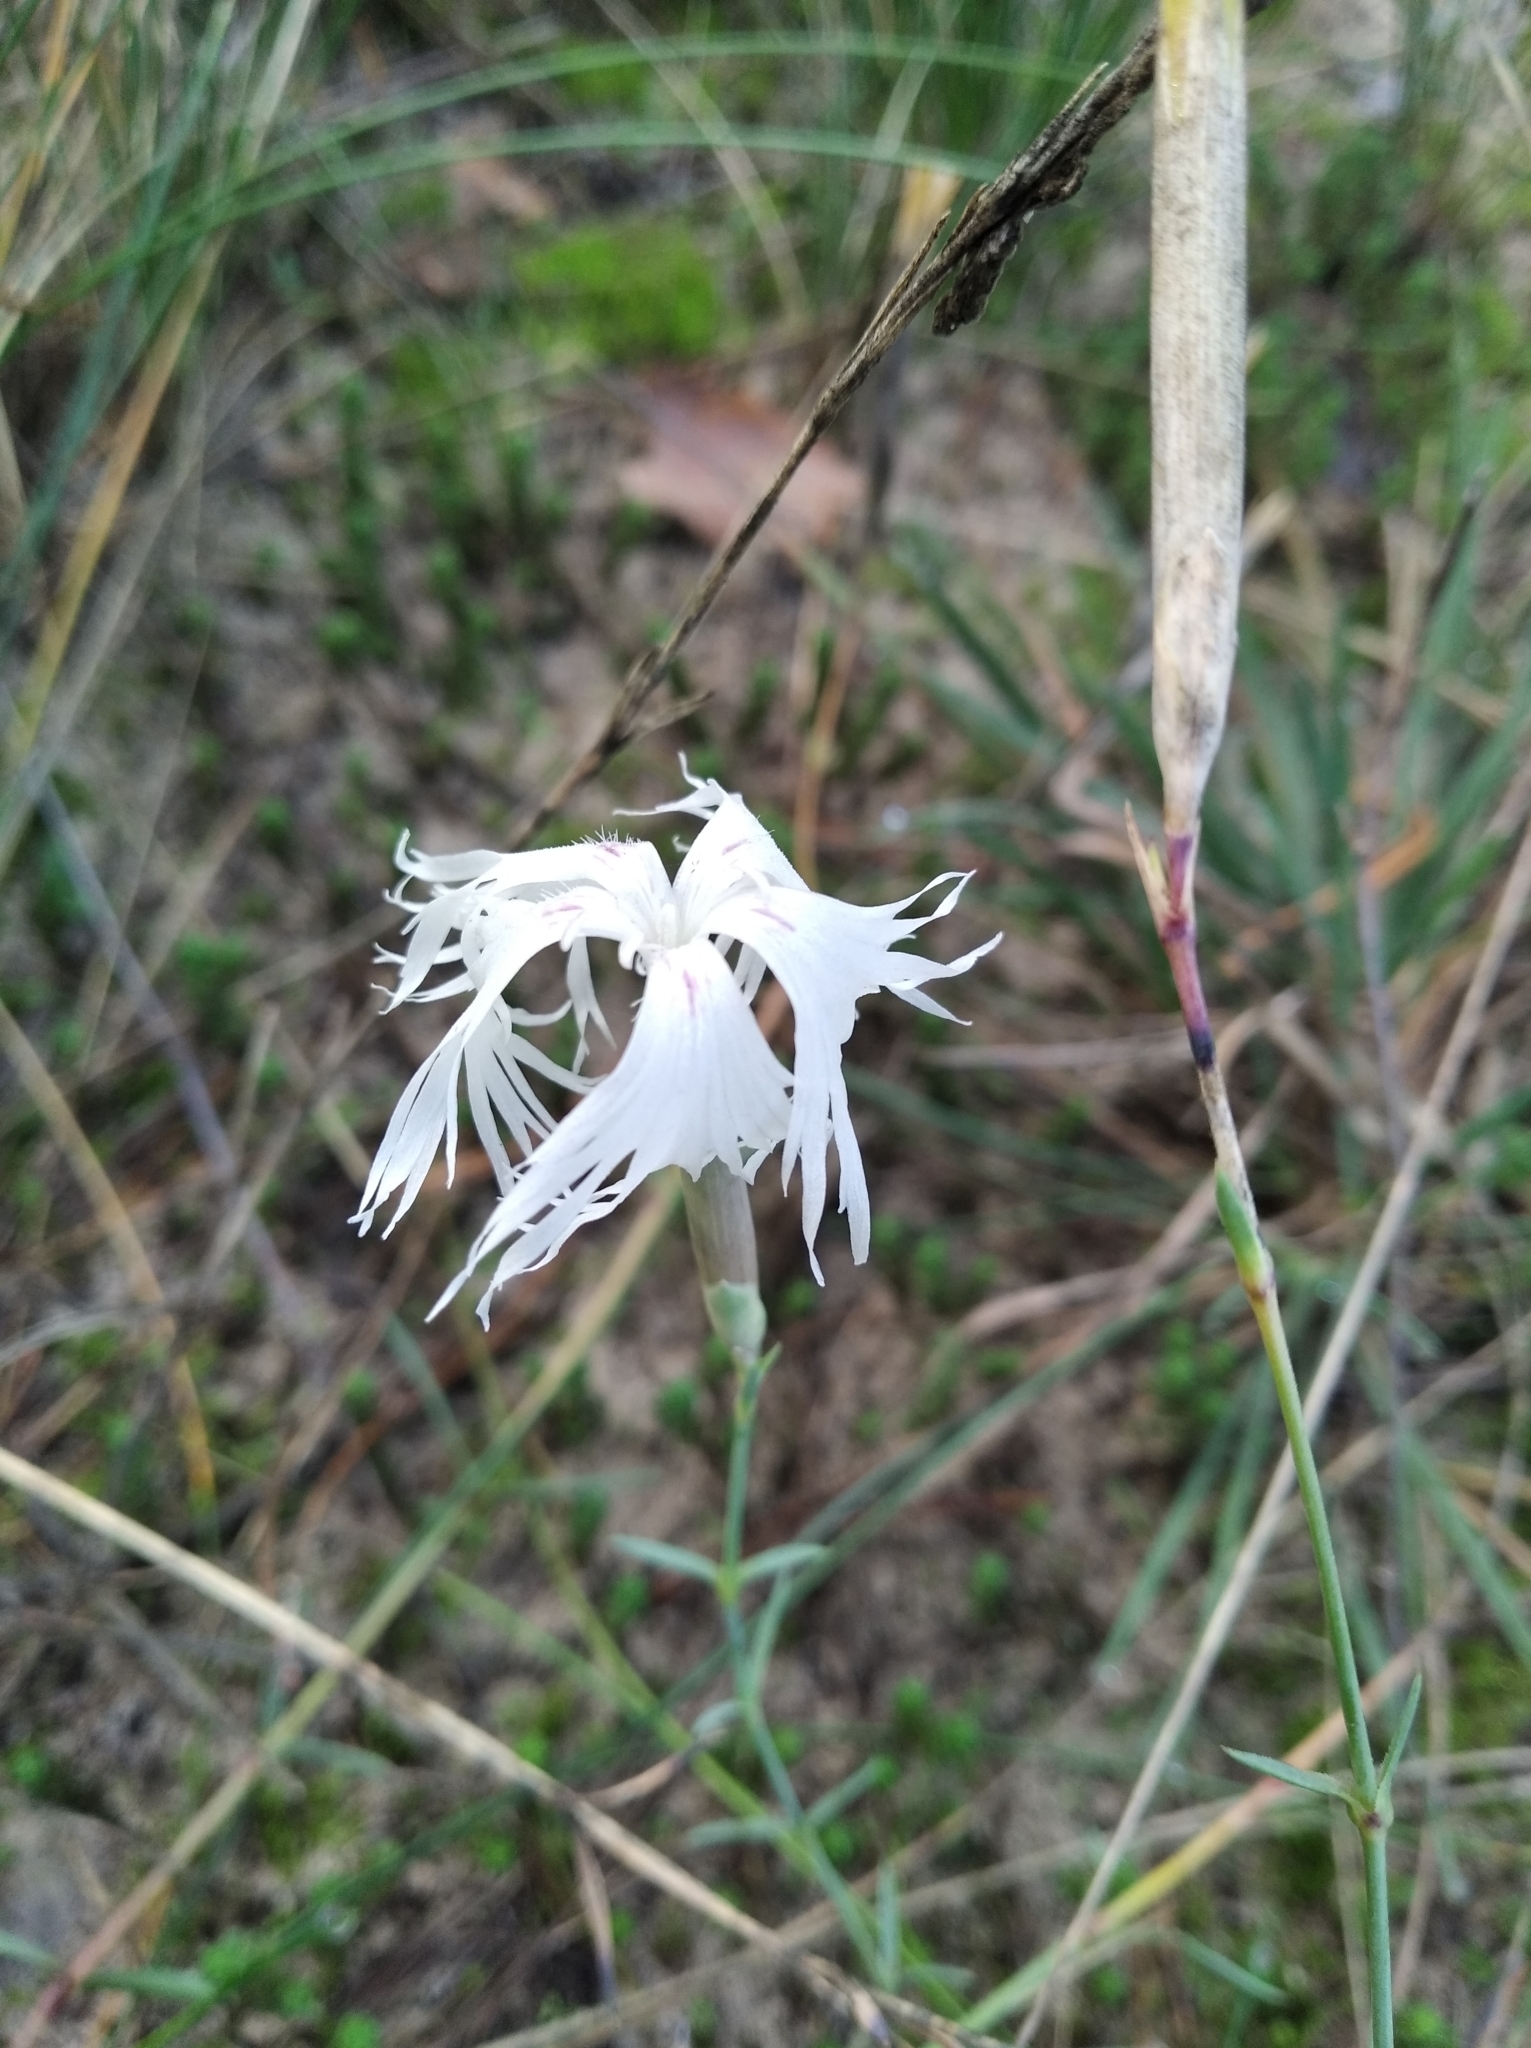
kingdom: Plantae
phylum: Tracheophyta
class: Magnoliopsida
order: Caryophyllales
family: Caryophyllaceae
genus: Dianthus
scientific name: Dianthus arenarius
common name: Stone pink
